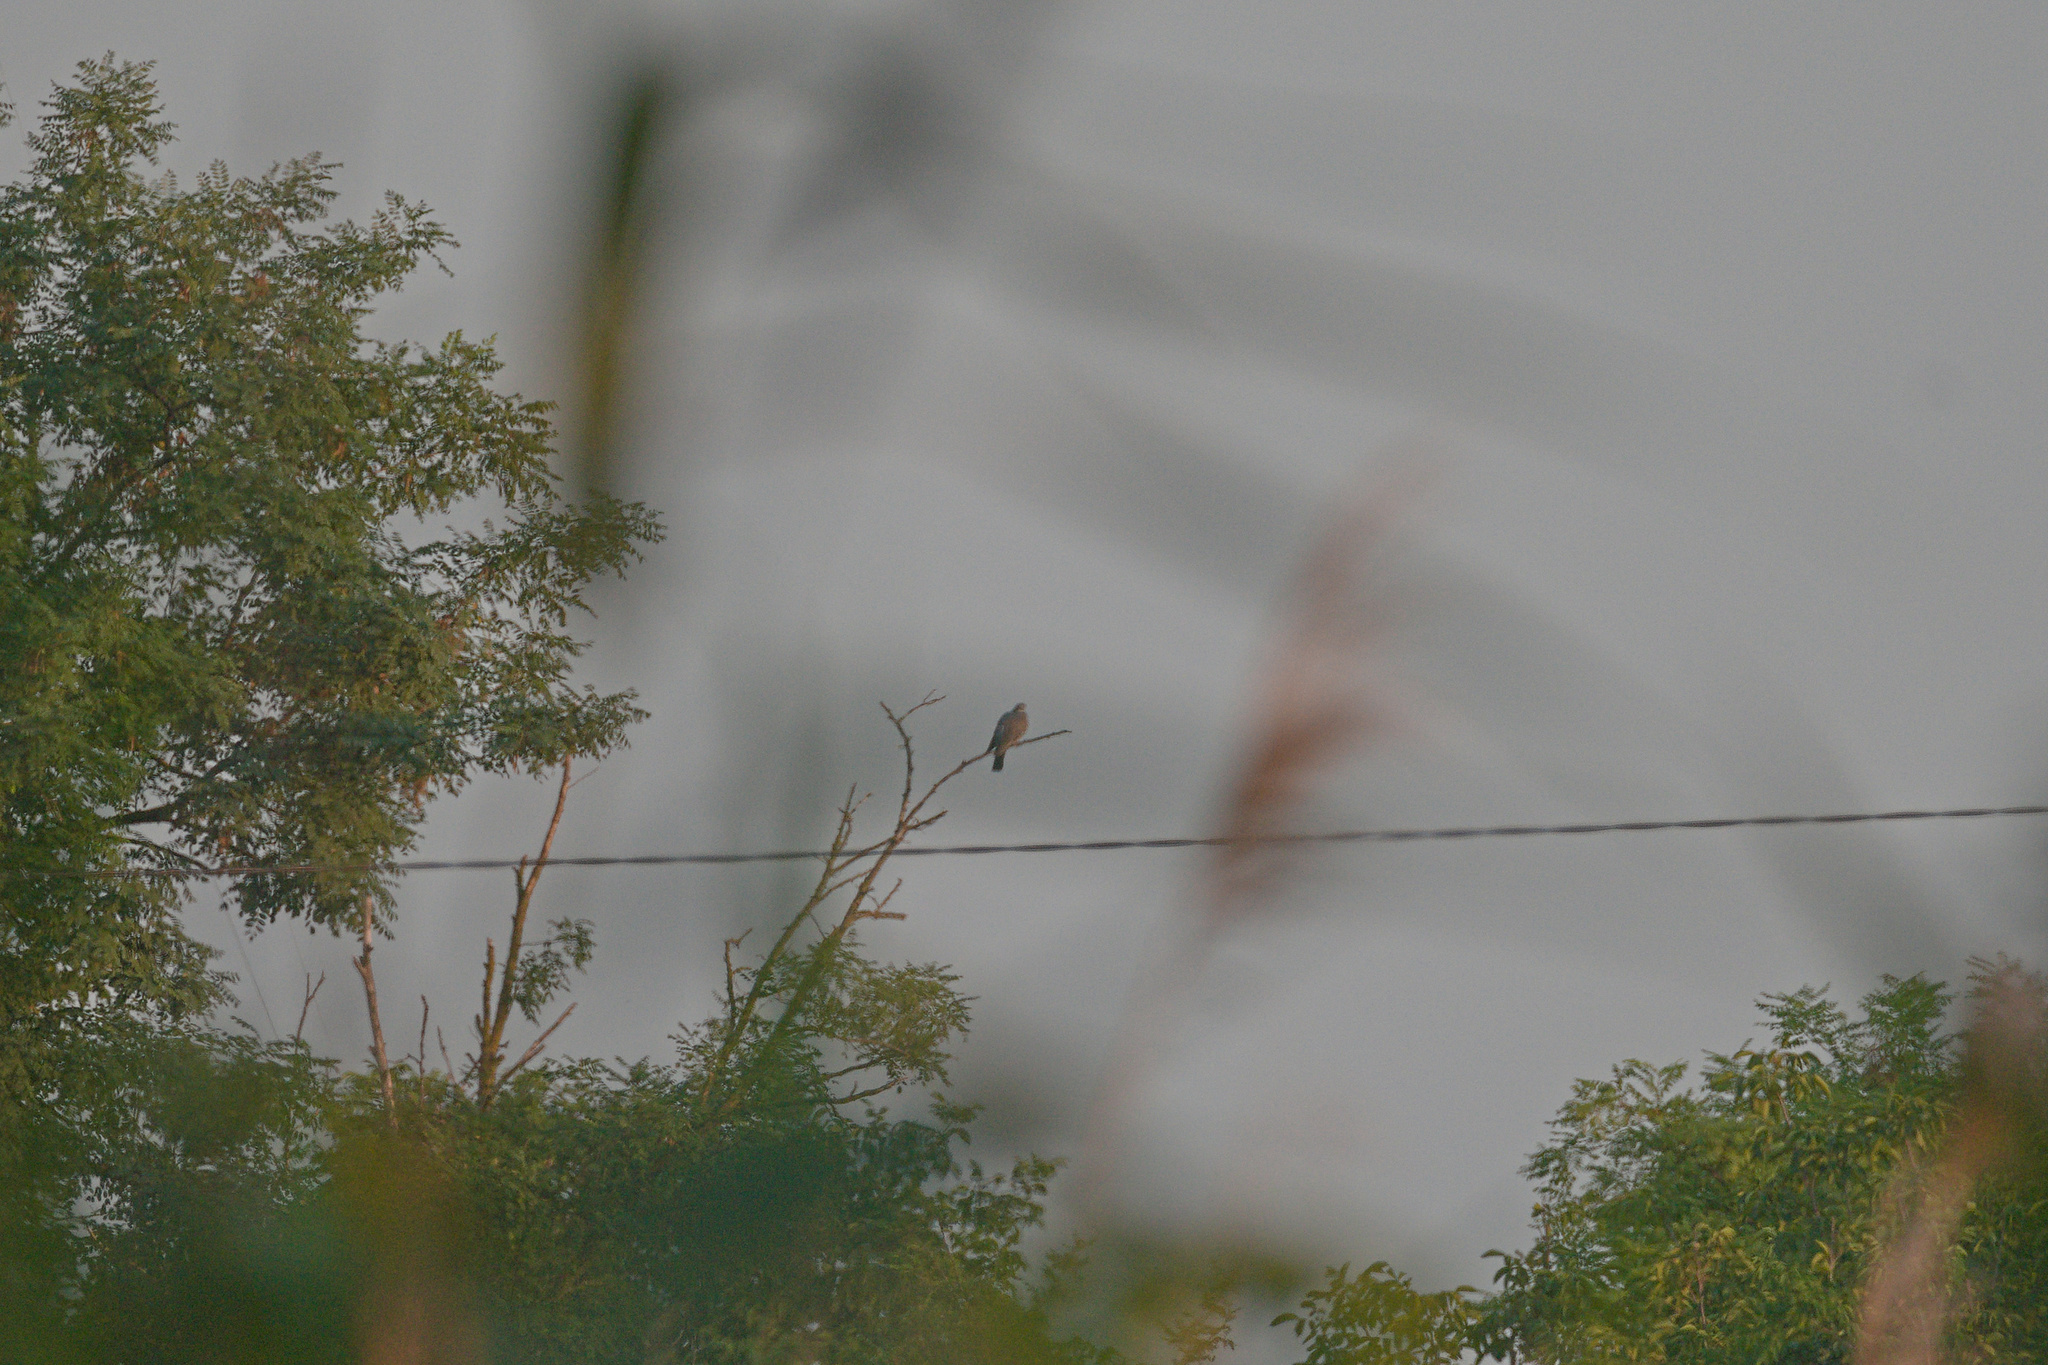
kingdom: Animalia
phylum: Chordata
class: Aves
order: Columbiformes
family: Columbidae
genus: Columba
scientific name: Columba palumbus
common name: Common wood pigeon
